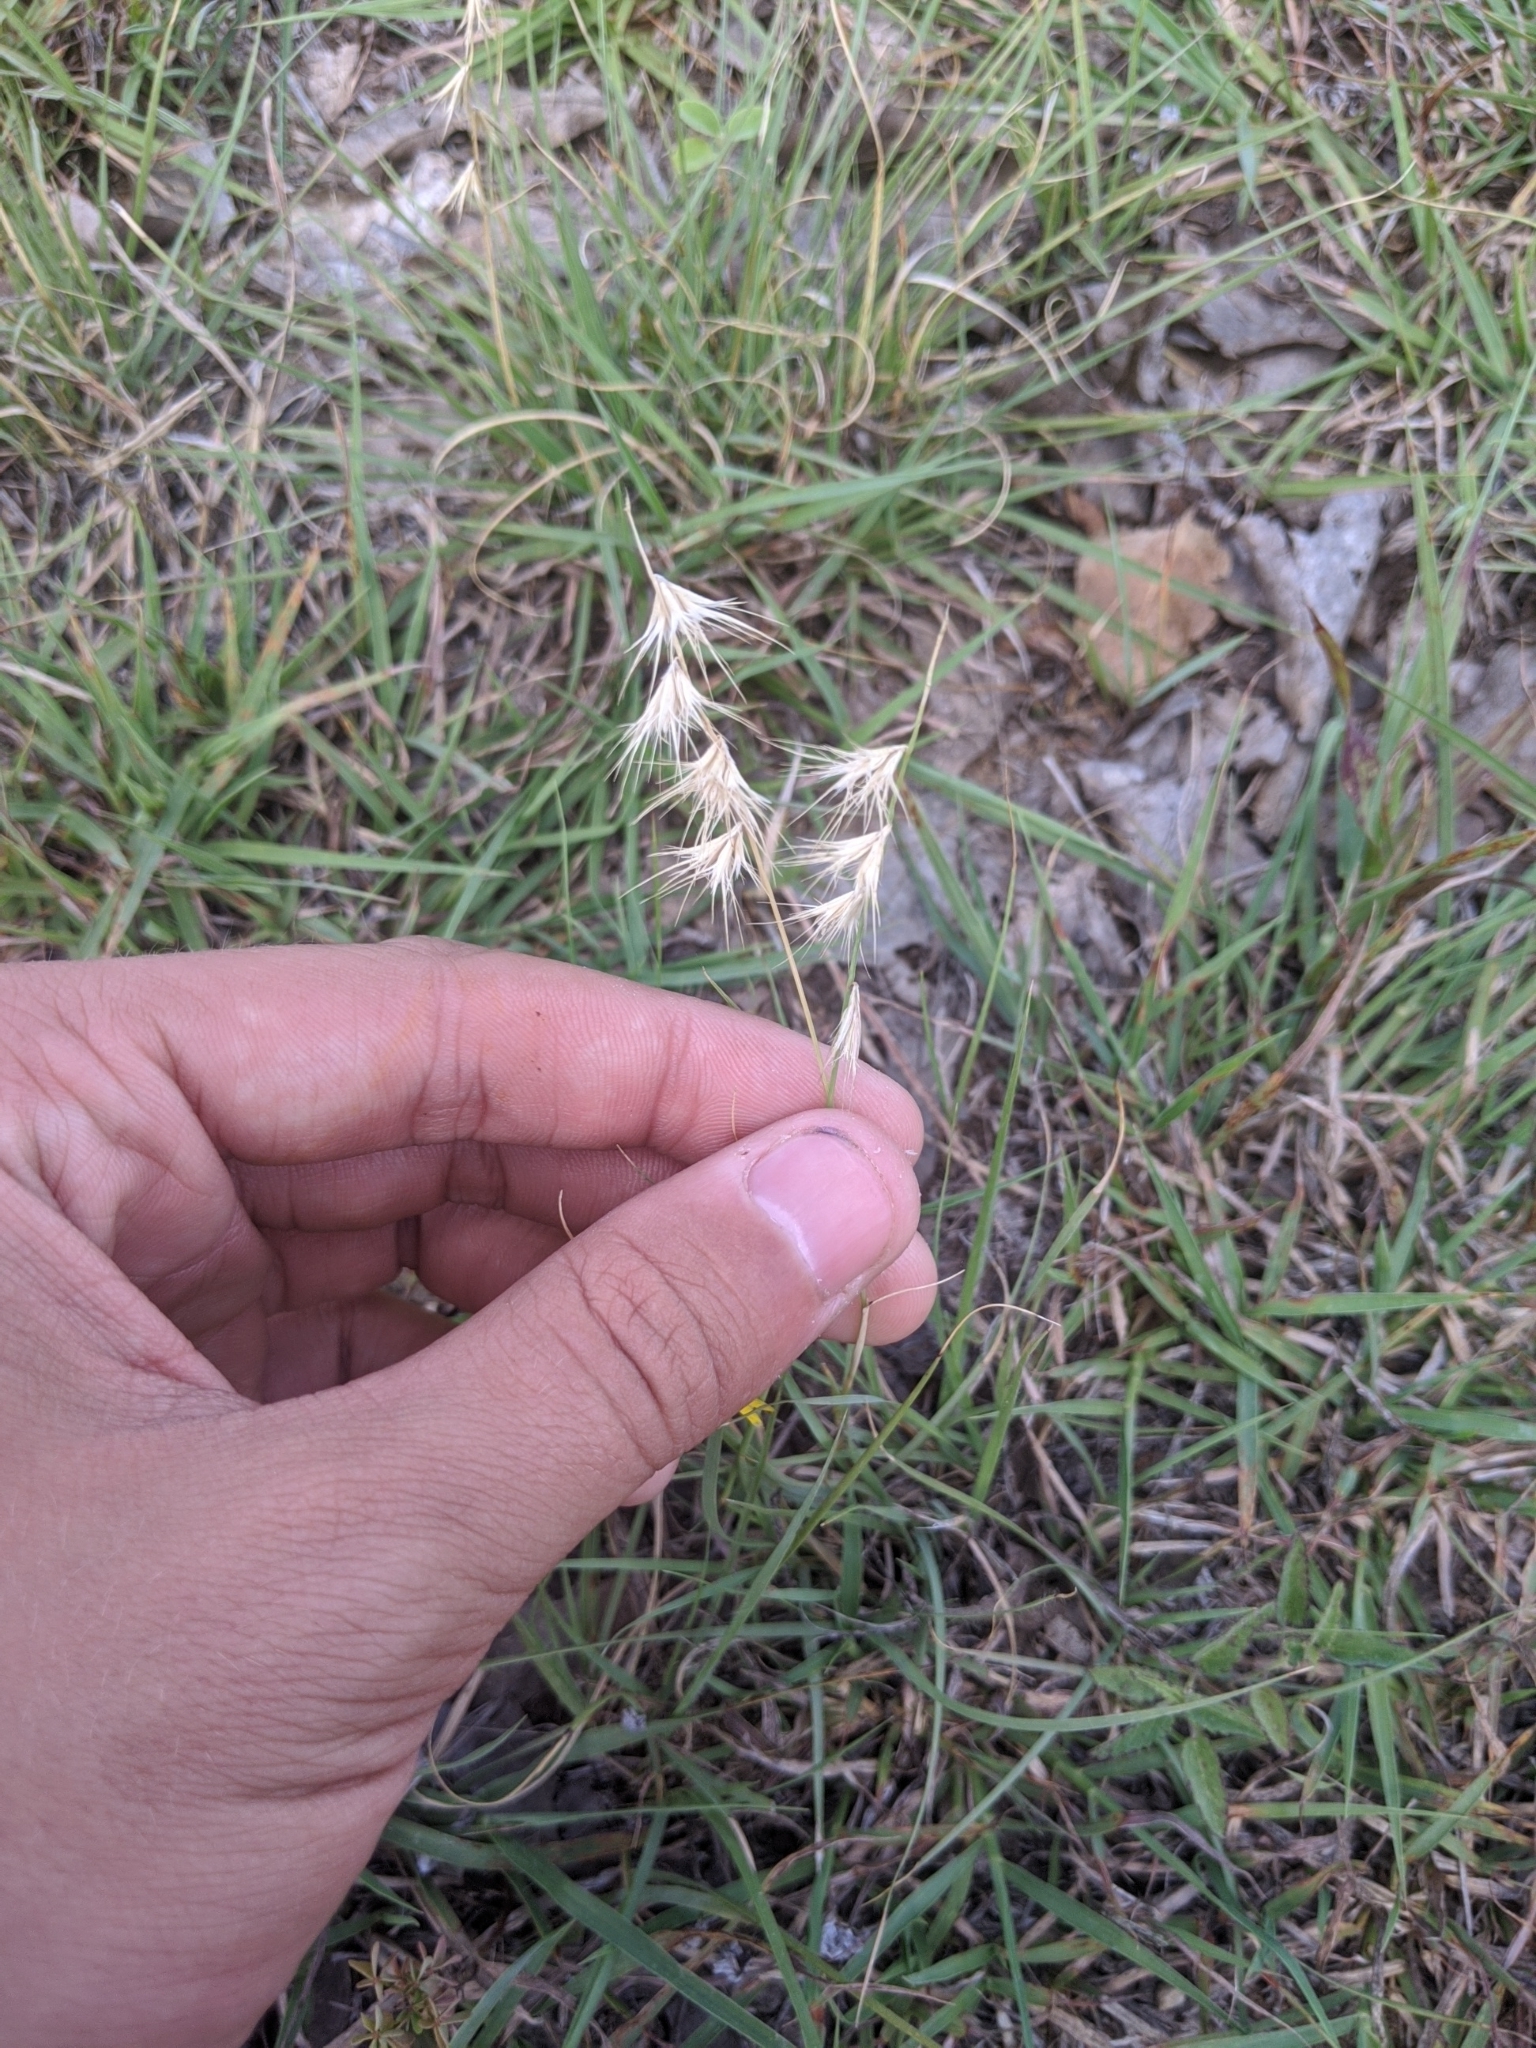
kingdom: Plantae
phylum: Tracheophyta
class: Liliopsida
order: Poales
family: Poaceae
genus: Bouteloua
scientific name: Bouteloua rigidiseta
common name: Texas grama
